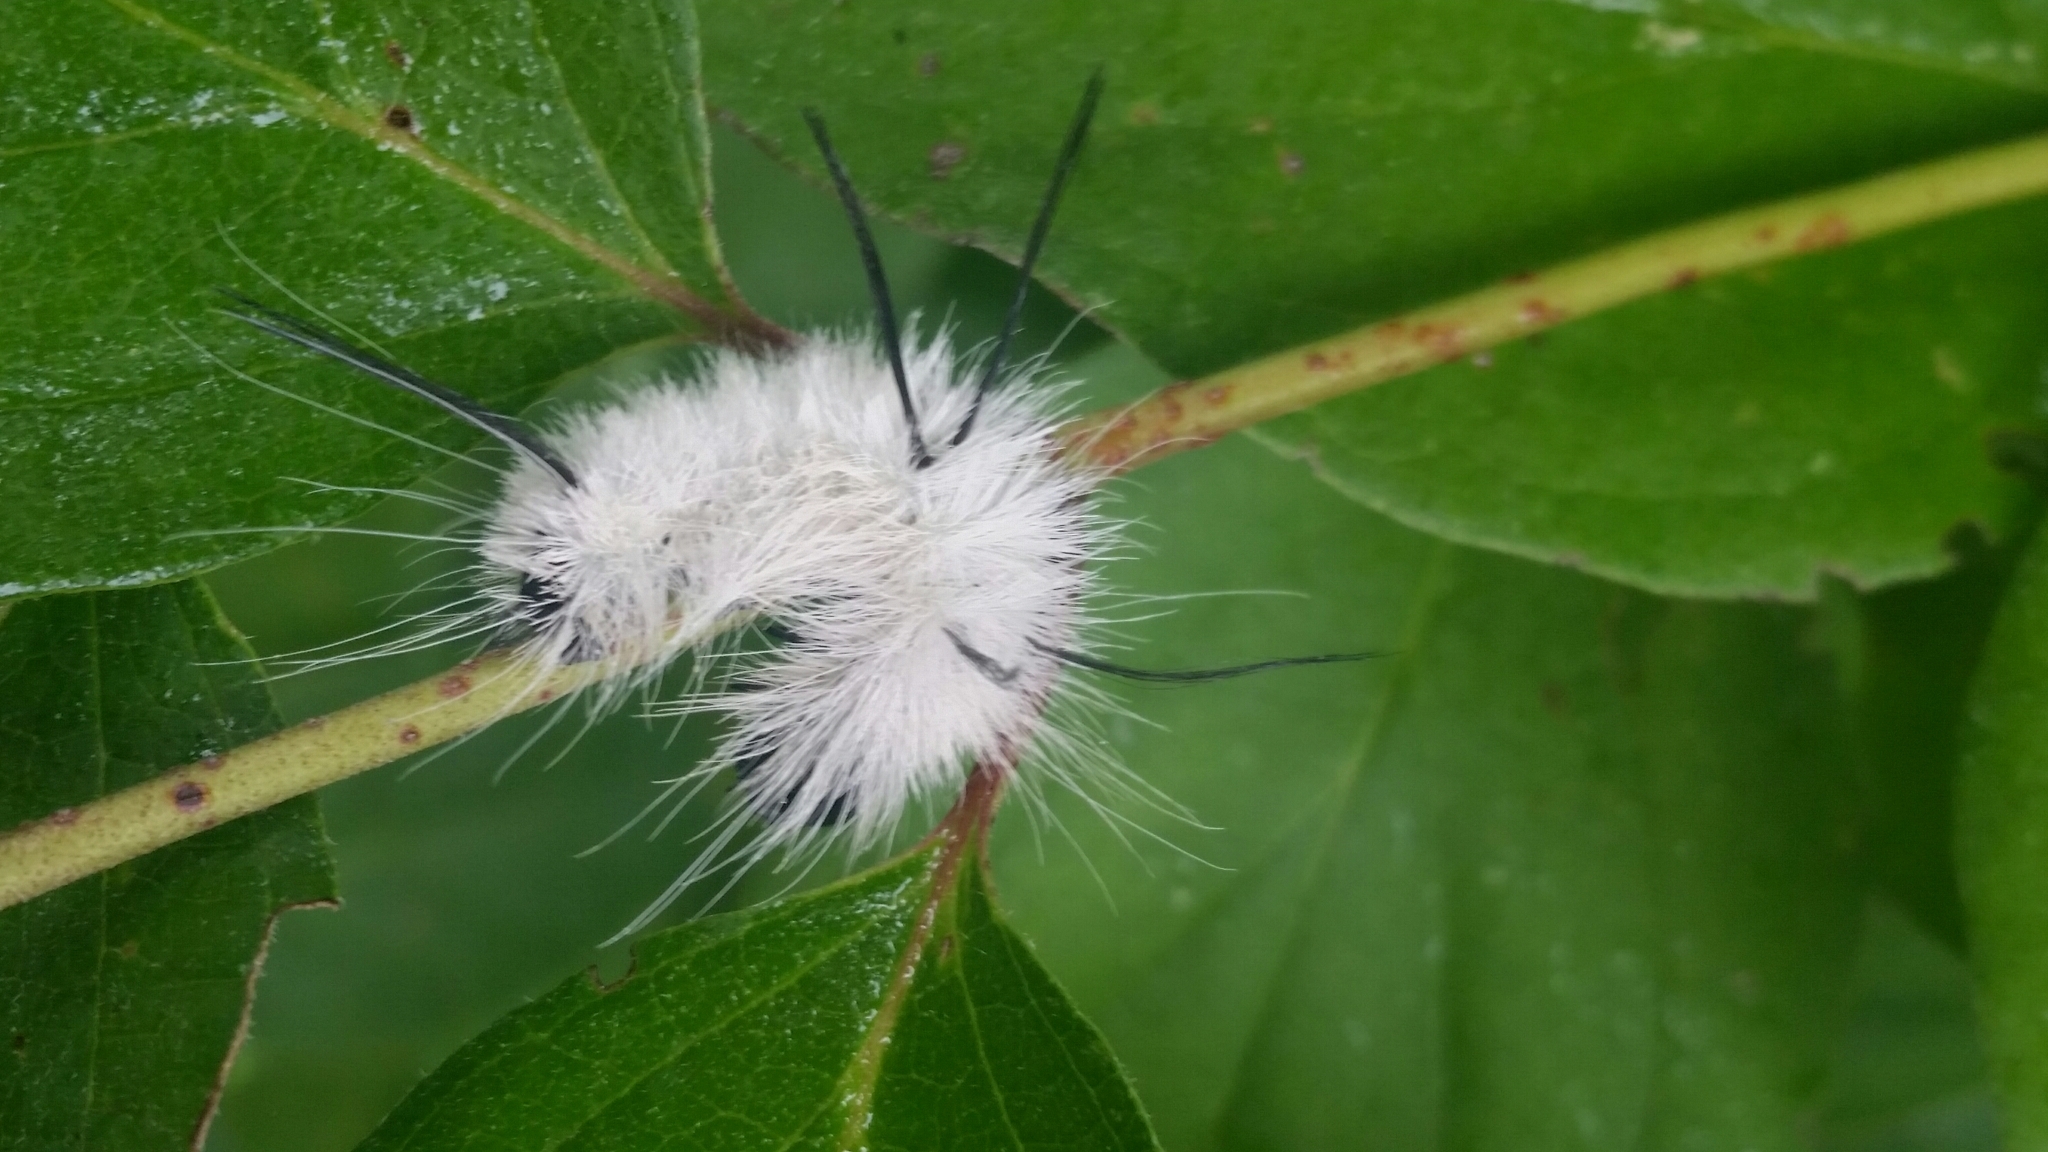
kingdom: Animalia
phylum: Arthropoda
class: Insecta
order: Lepidoptera
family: Noctuidae
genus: Acronicta
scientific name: Acronicta americana
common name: American dagger
